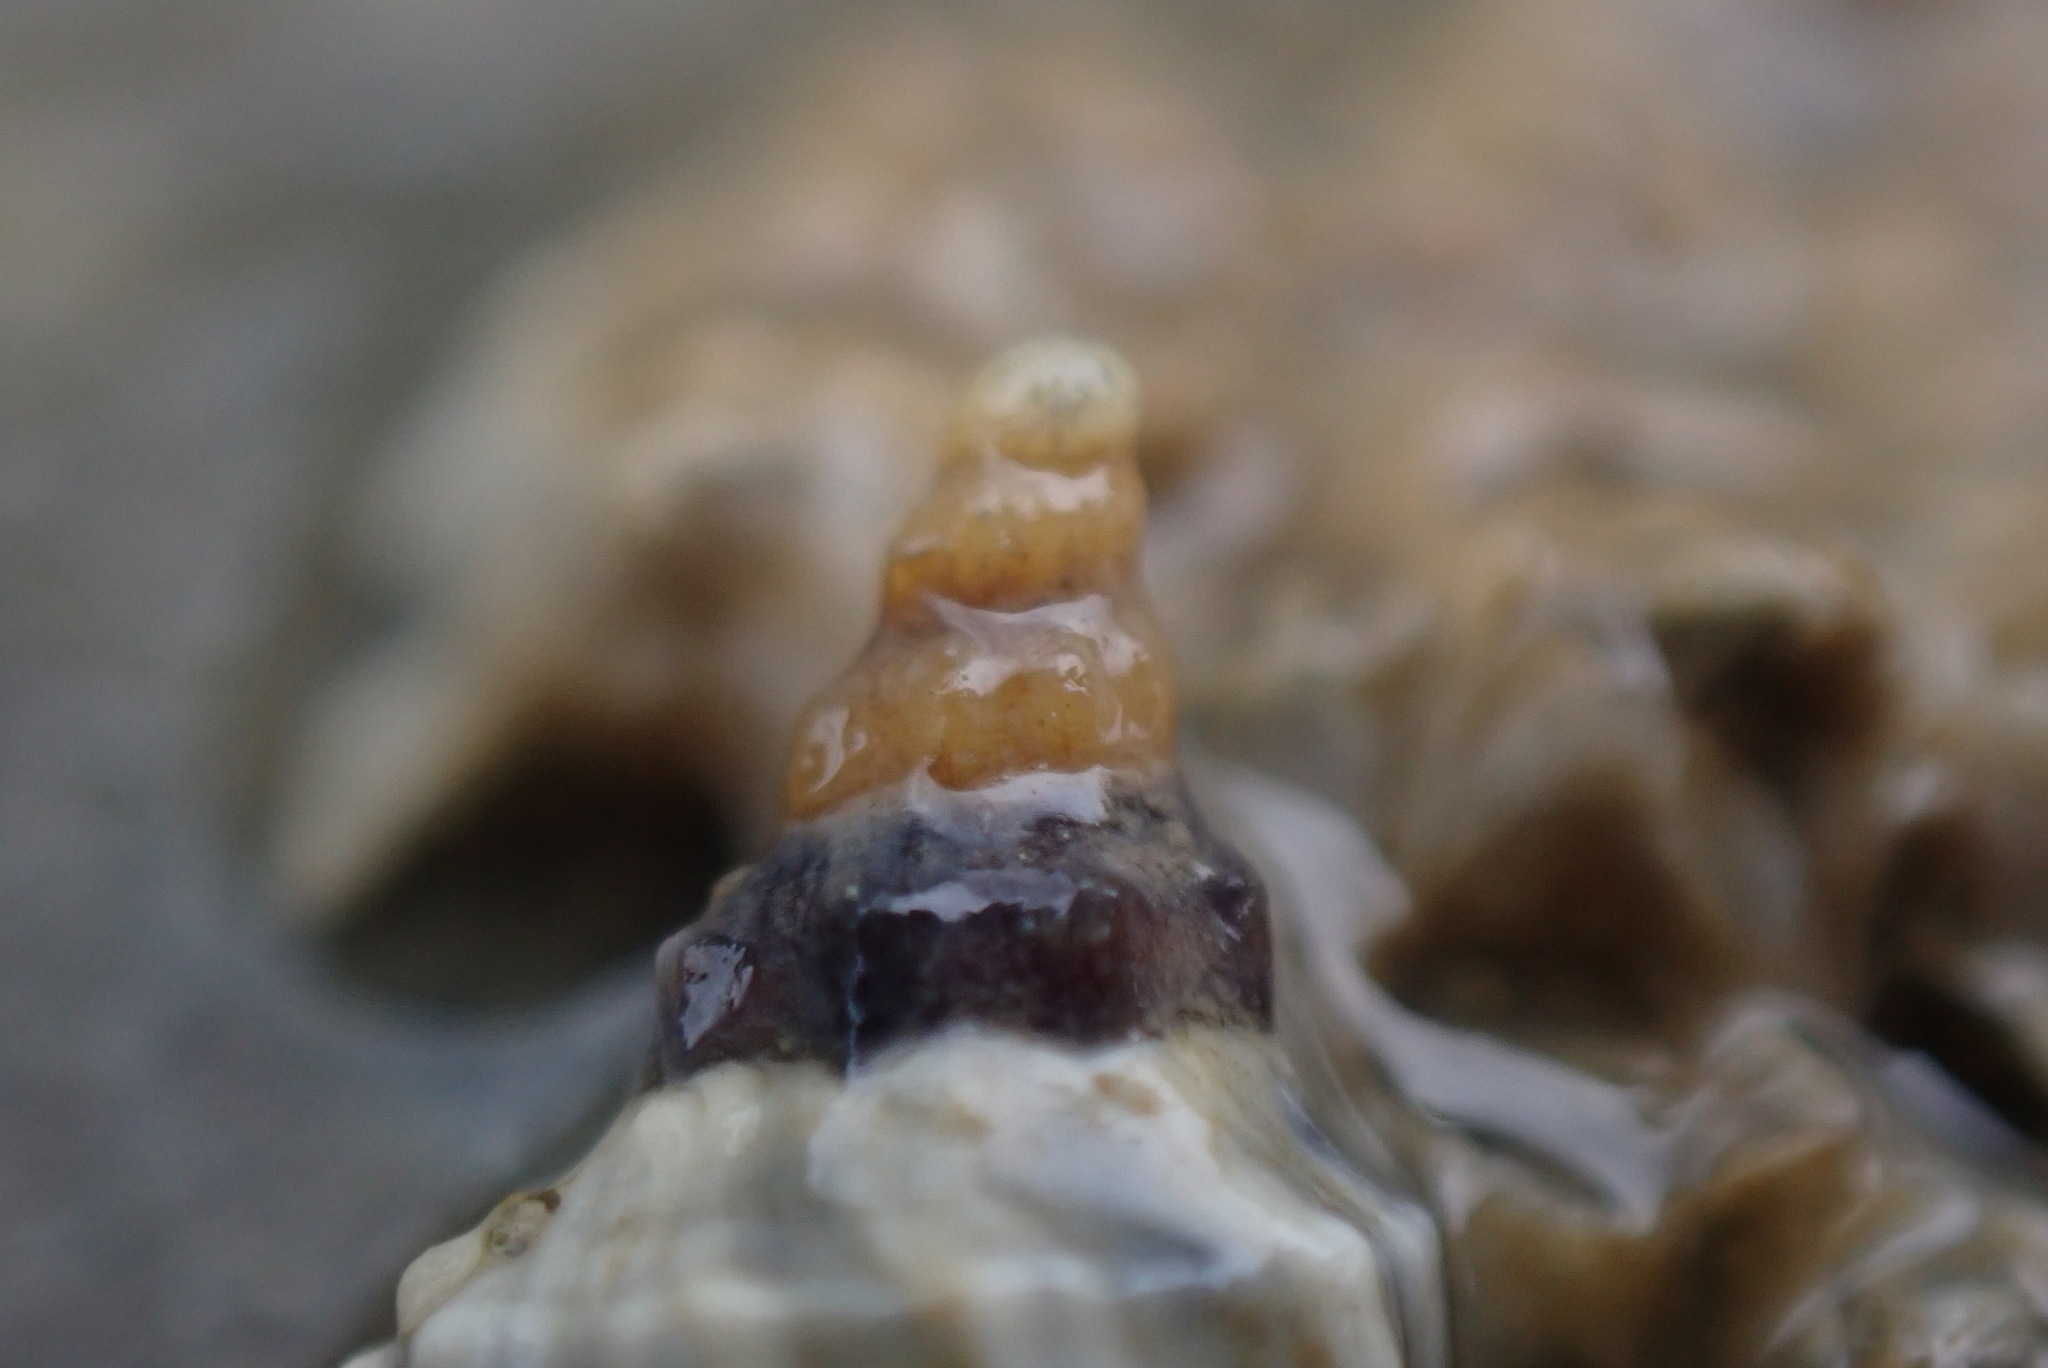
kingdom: Animalia
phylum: Mollusca
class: Gastropoda
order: Neogastropoda
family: Muricidae
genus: Haustrum
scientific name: Haustrum albomarginatum
